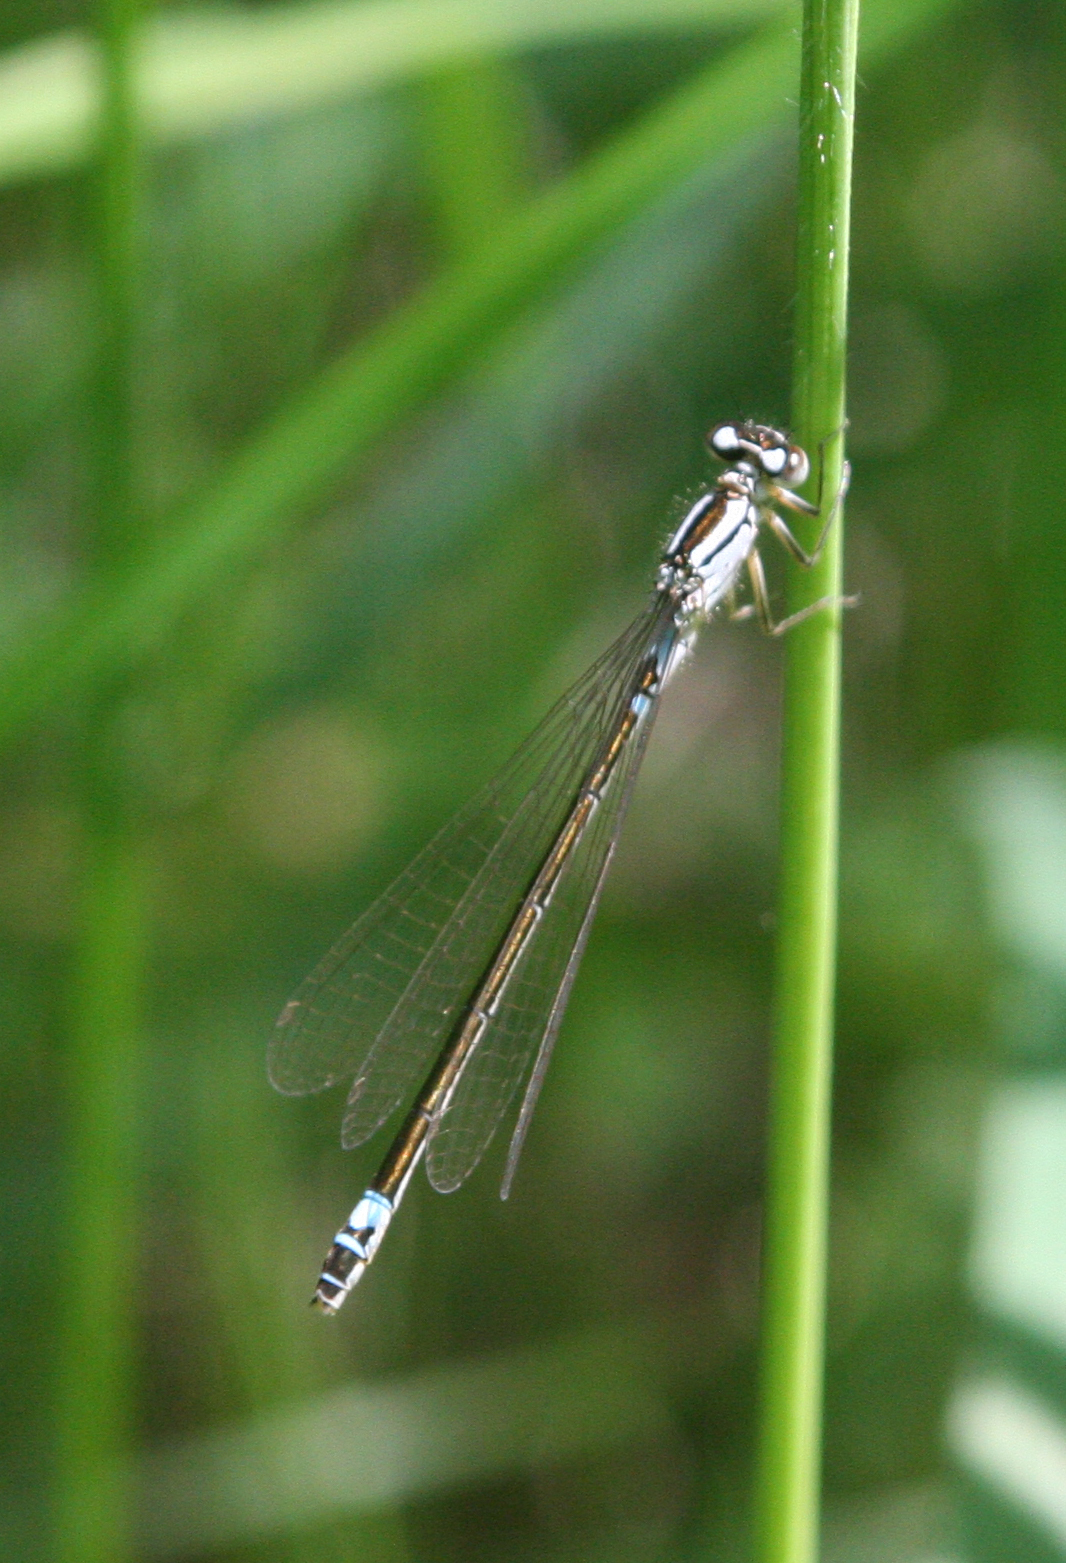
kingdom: Animalia
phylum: Arthropoda
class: Insecta
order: Odonata
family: Coenagrionidae
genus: Coenagrion
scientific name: Coenagrion armatum
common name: Dark bluet
